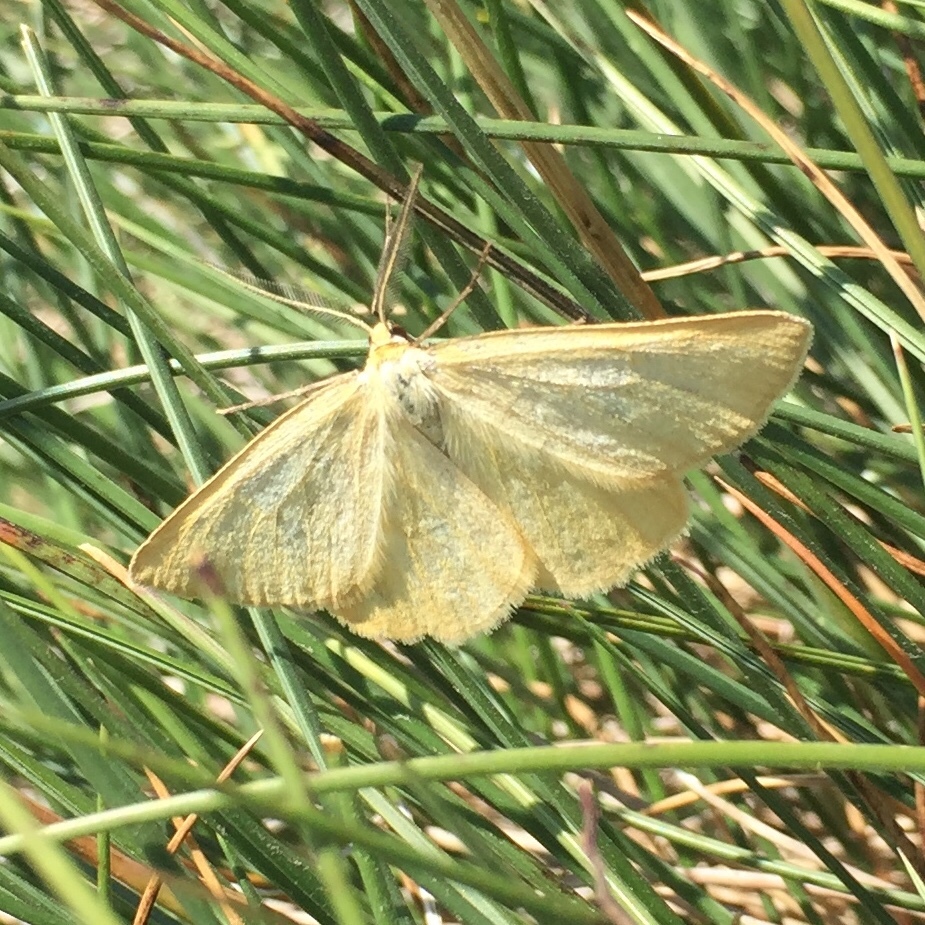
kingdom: Animalia
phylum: Arthropoda
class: Insecta
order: Lepidoptera
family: Geometridae
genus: Crocota
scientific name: Crocota tinctaria
